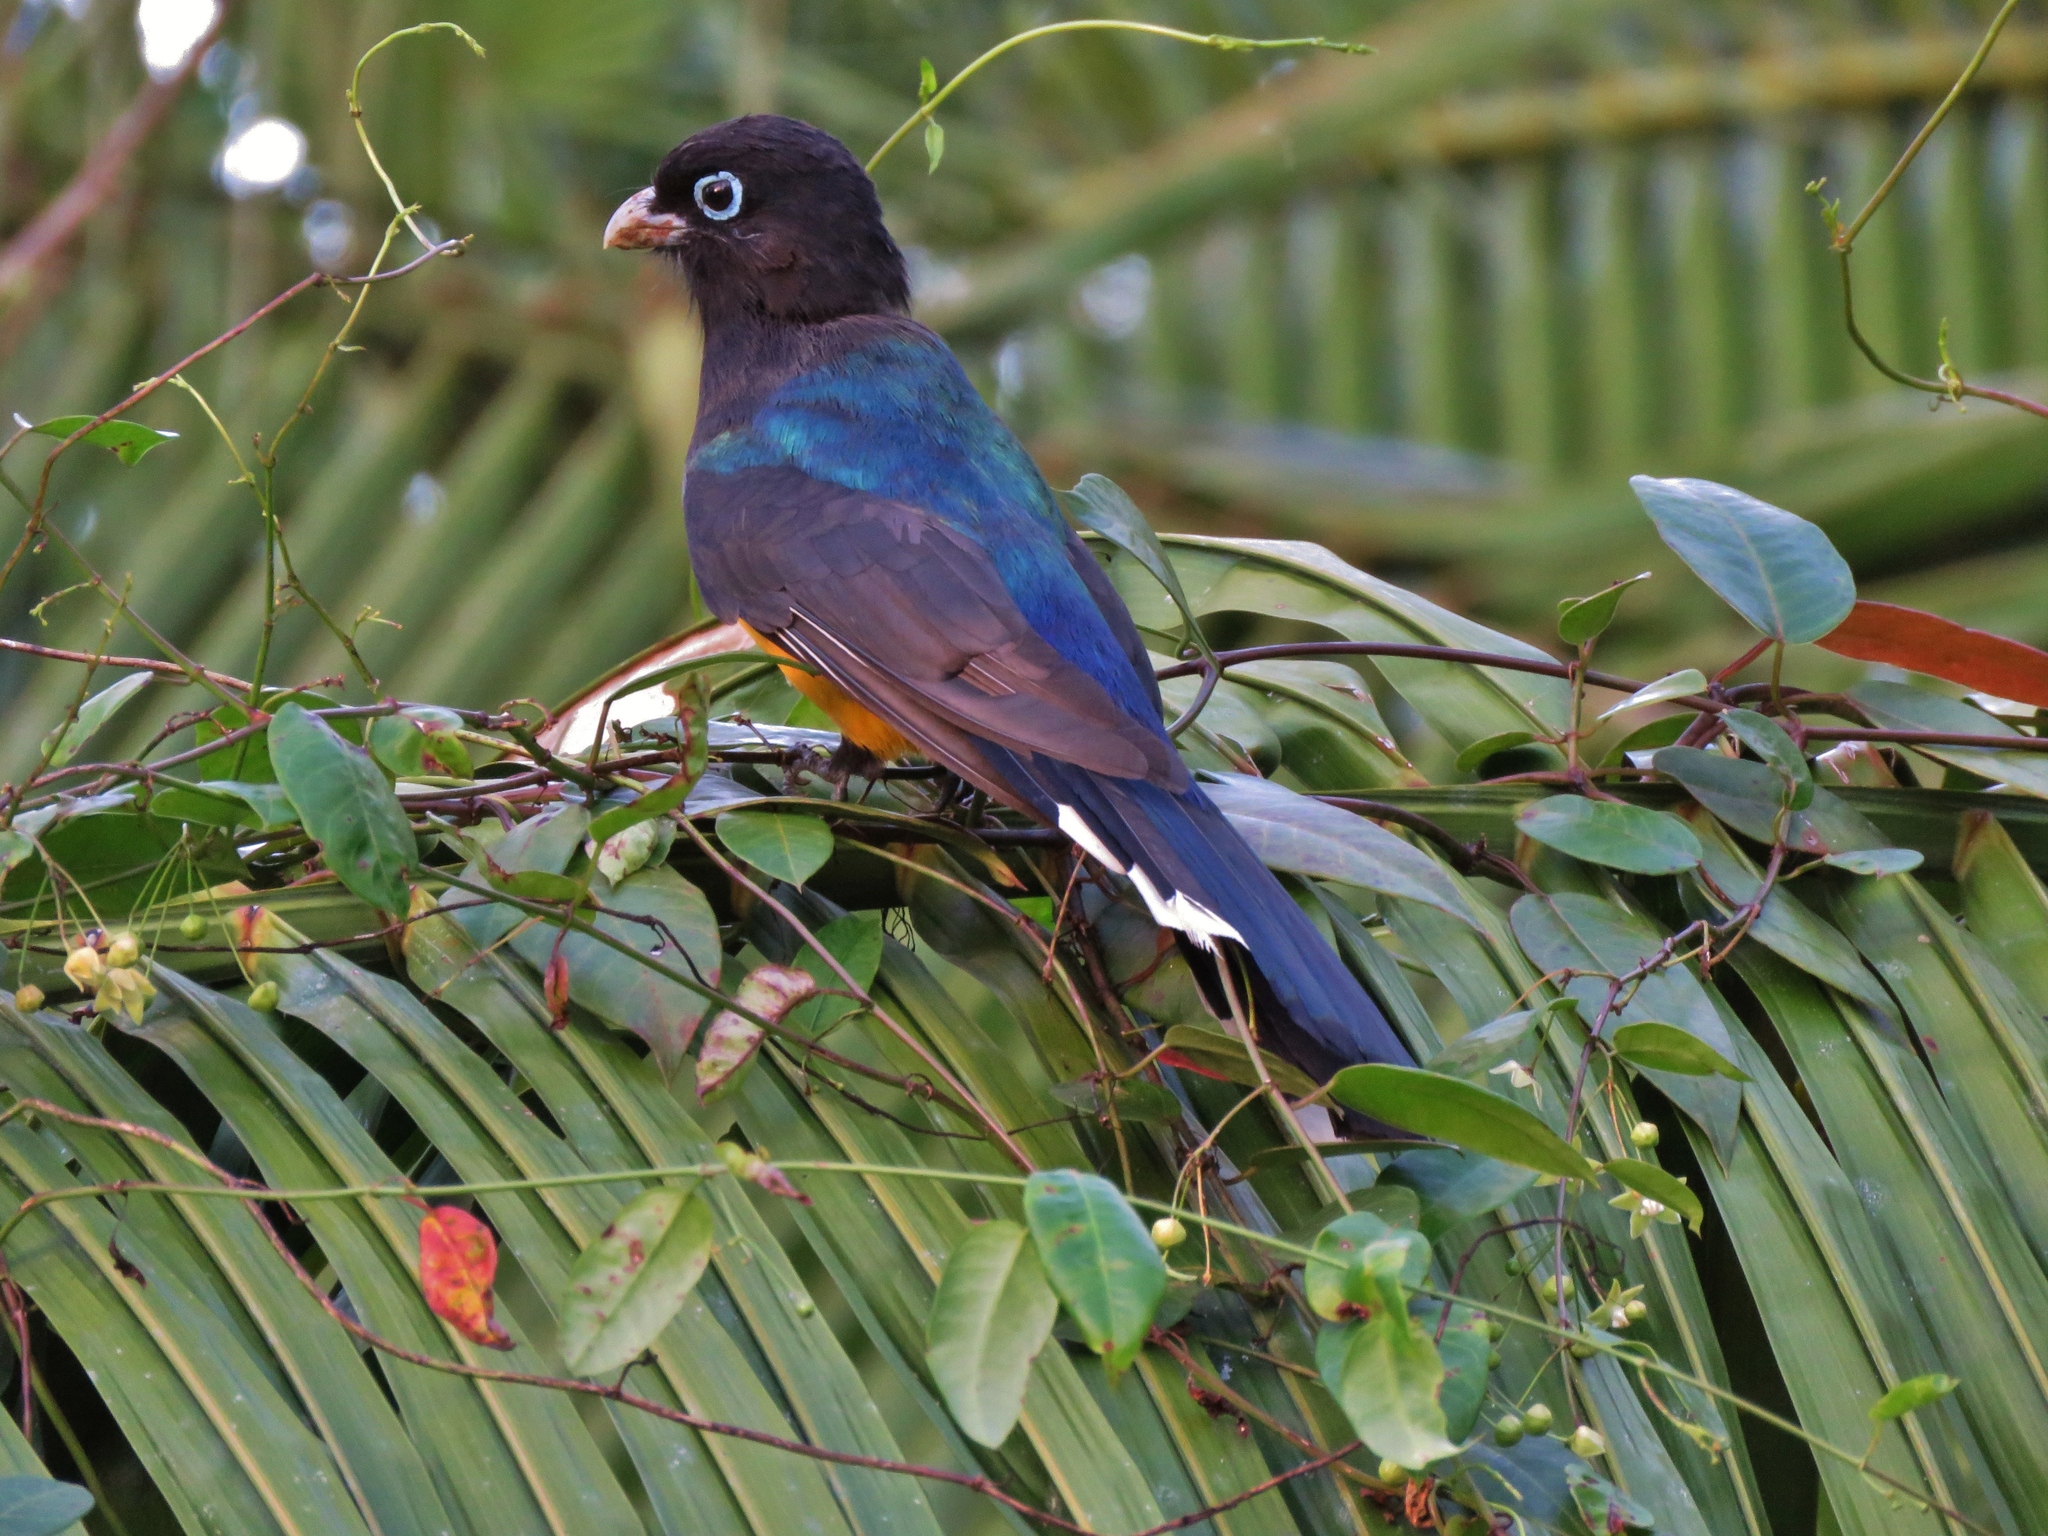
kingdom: Animalia
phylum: Chordata
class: Aves
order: Trogoniformes
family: Trogonidae
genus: Trogon
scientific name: Trogon melanocephalus
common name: Black-headed trogon
